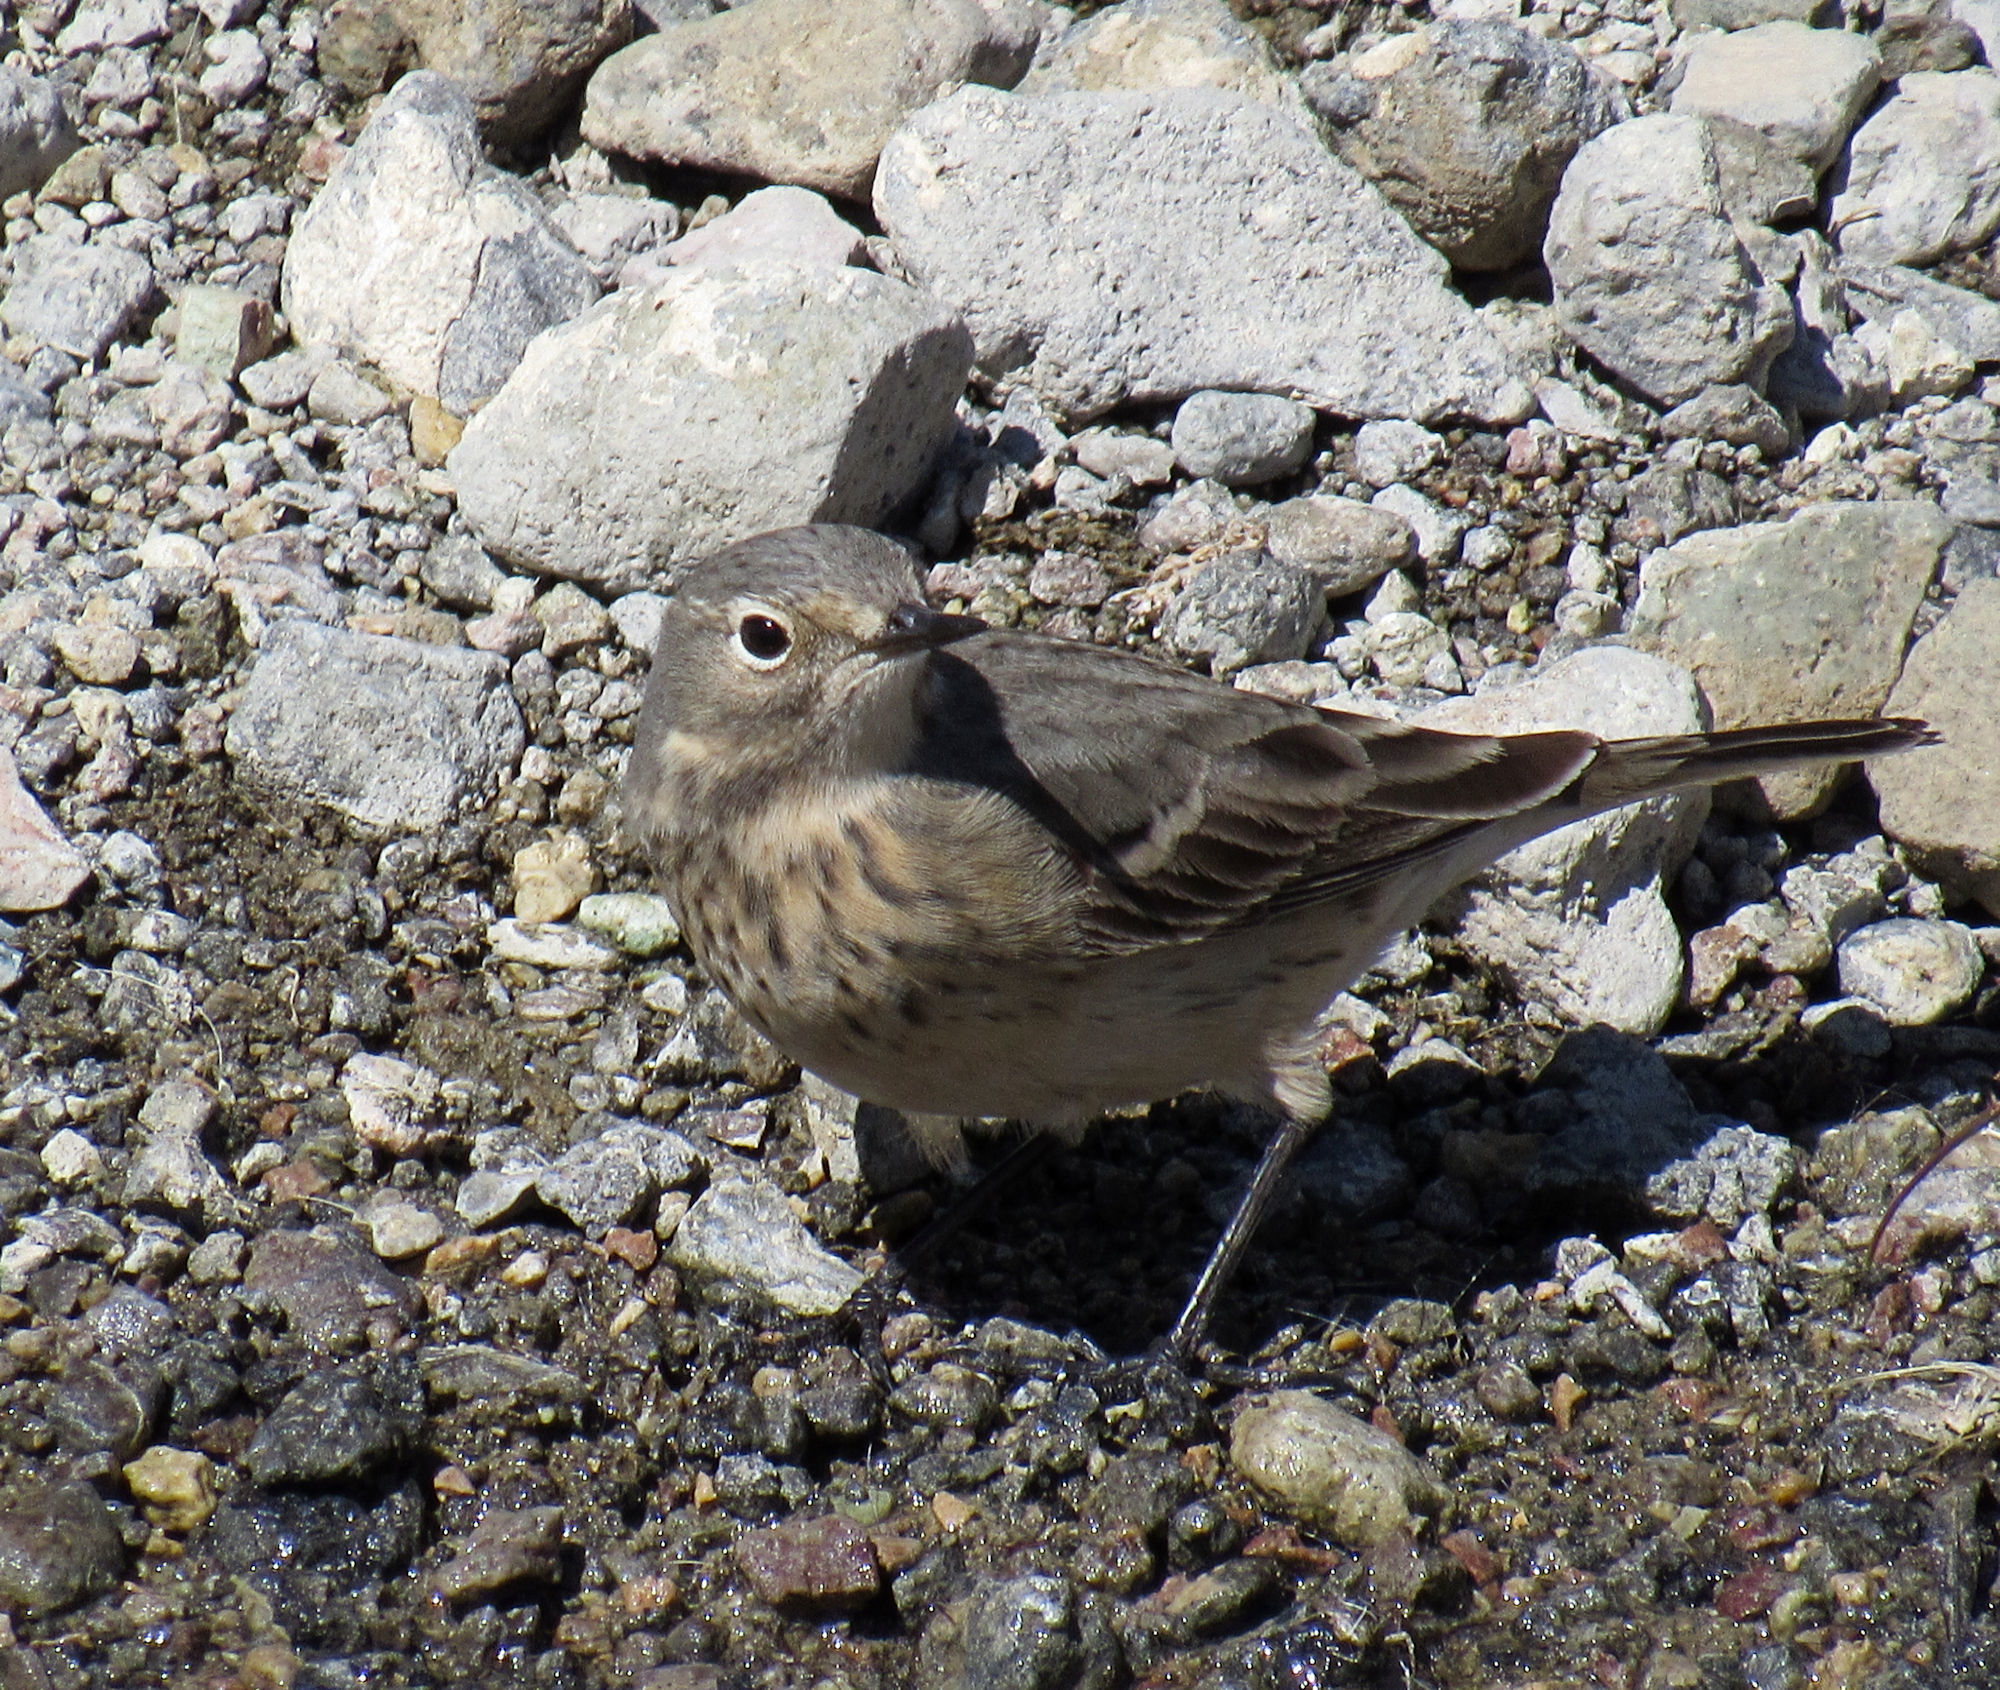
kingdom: Animalia
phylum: Chordata
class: Aves
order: Passeriformes
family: Motacillidae
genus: Anthus
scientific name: Anthus rubescens
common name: Buff-bellied pipit
